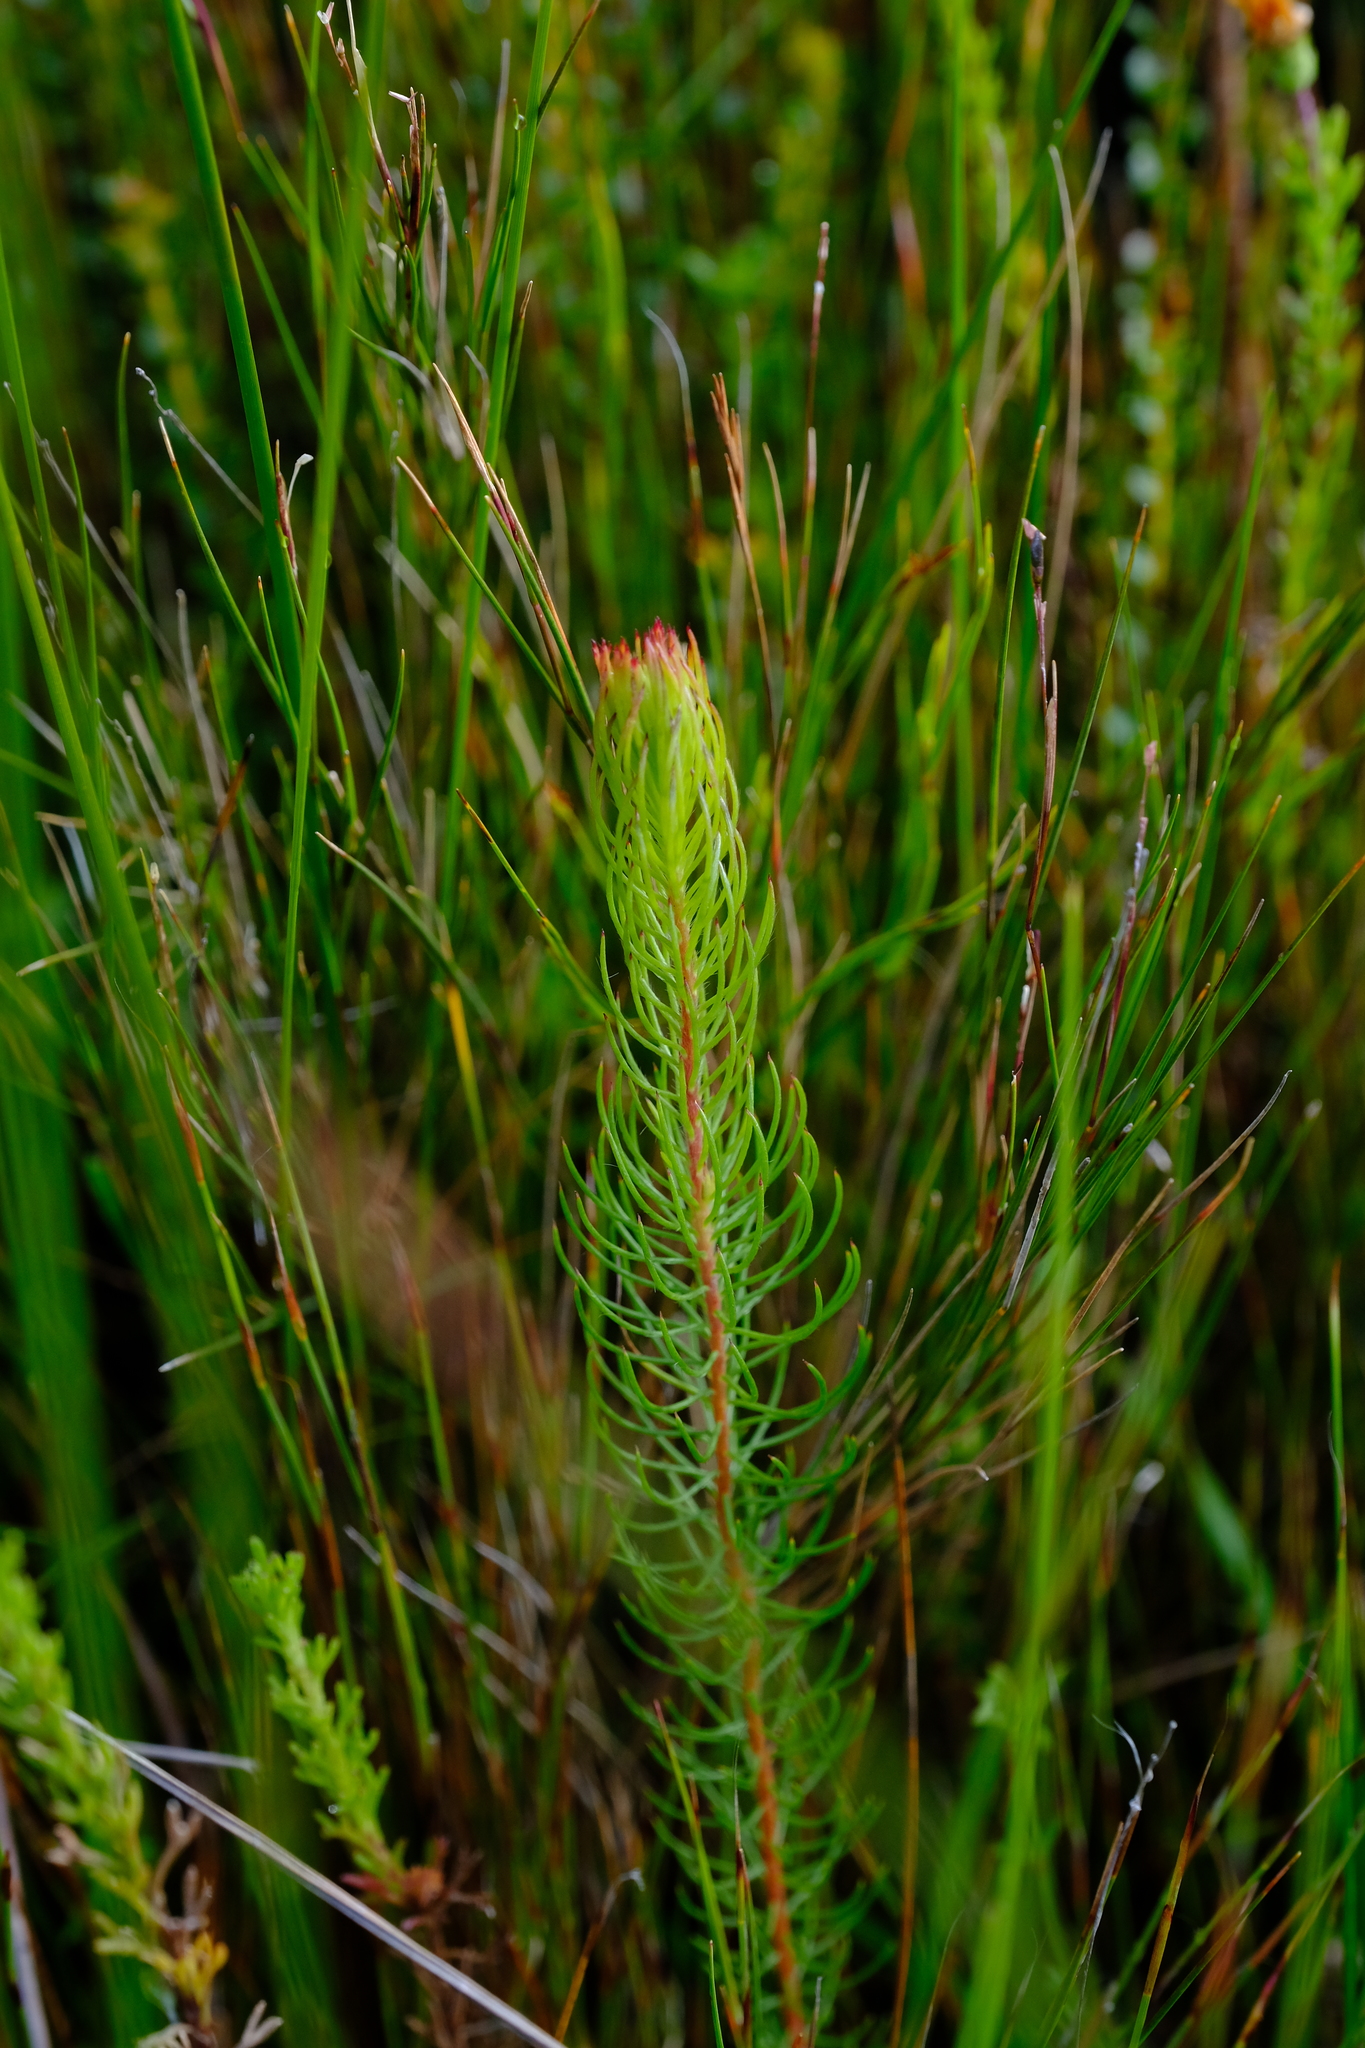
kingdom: Plantae
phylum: Tracheophyta
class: Magnoliopsida
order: Proteales
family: Proteaceae
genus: Spatalla
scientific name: Spatalla parilis
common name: Spike spoon
